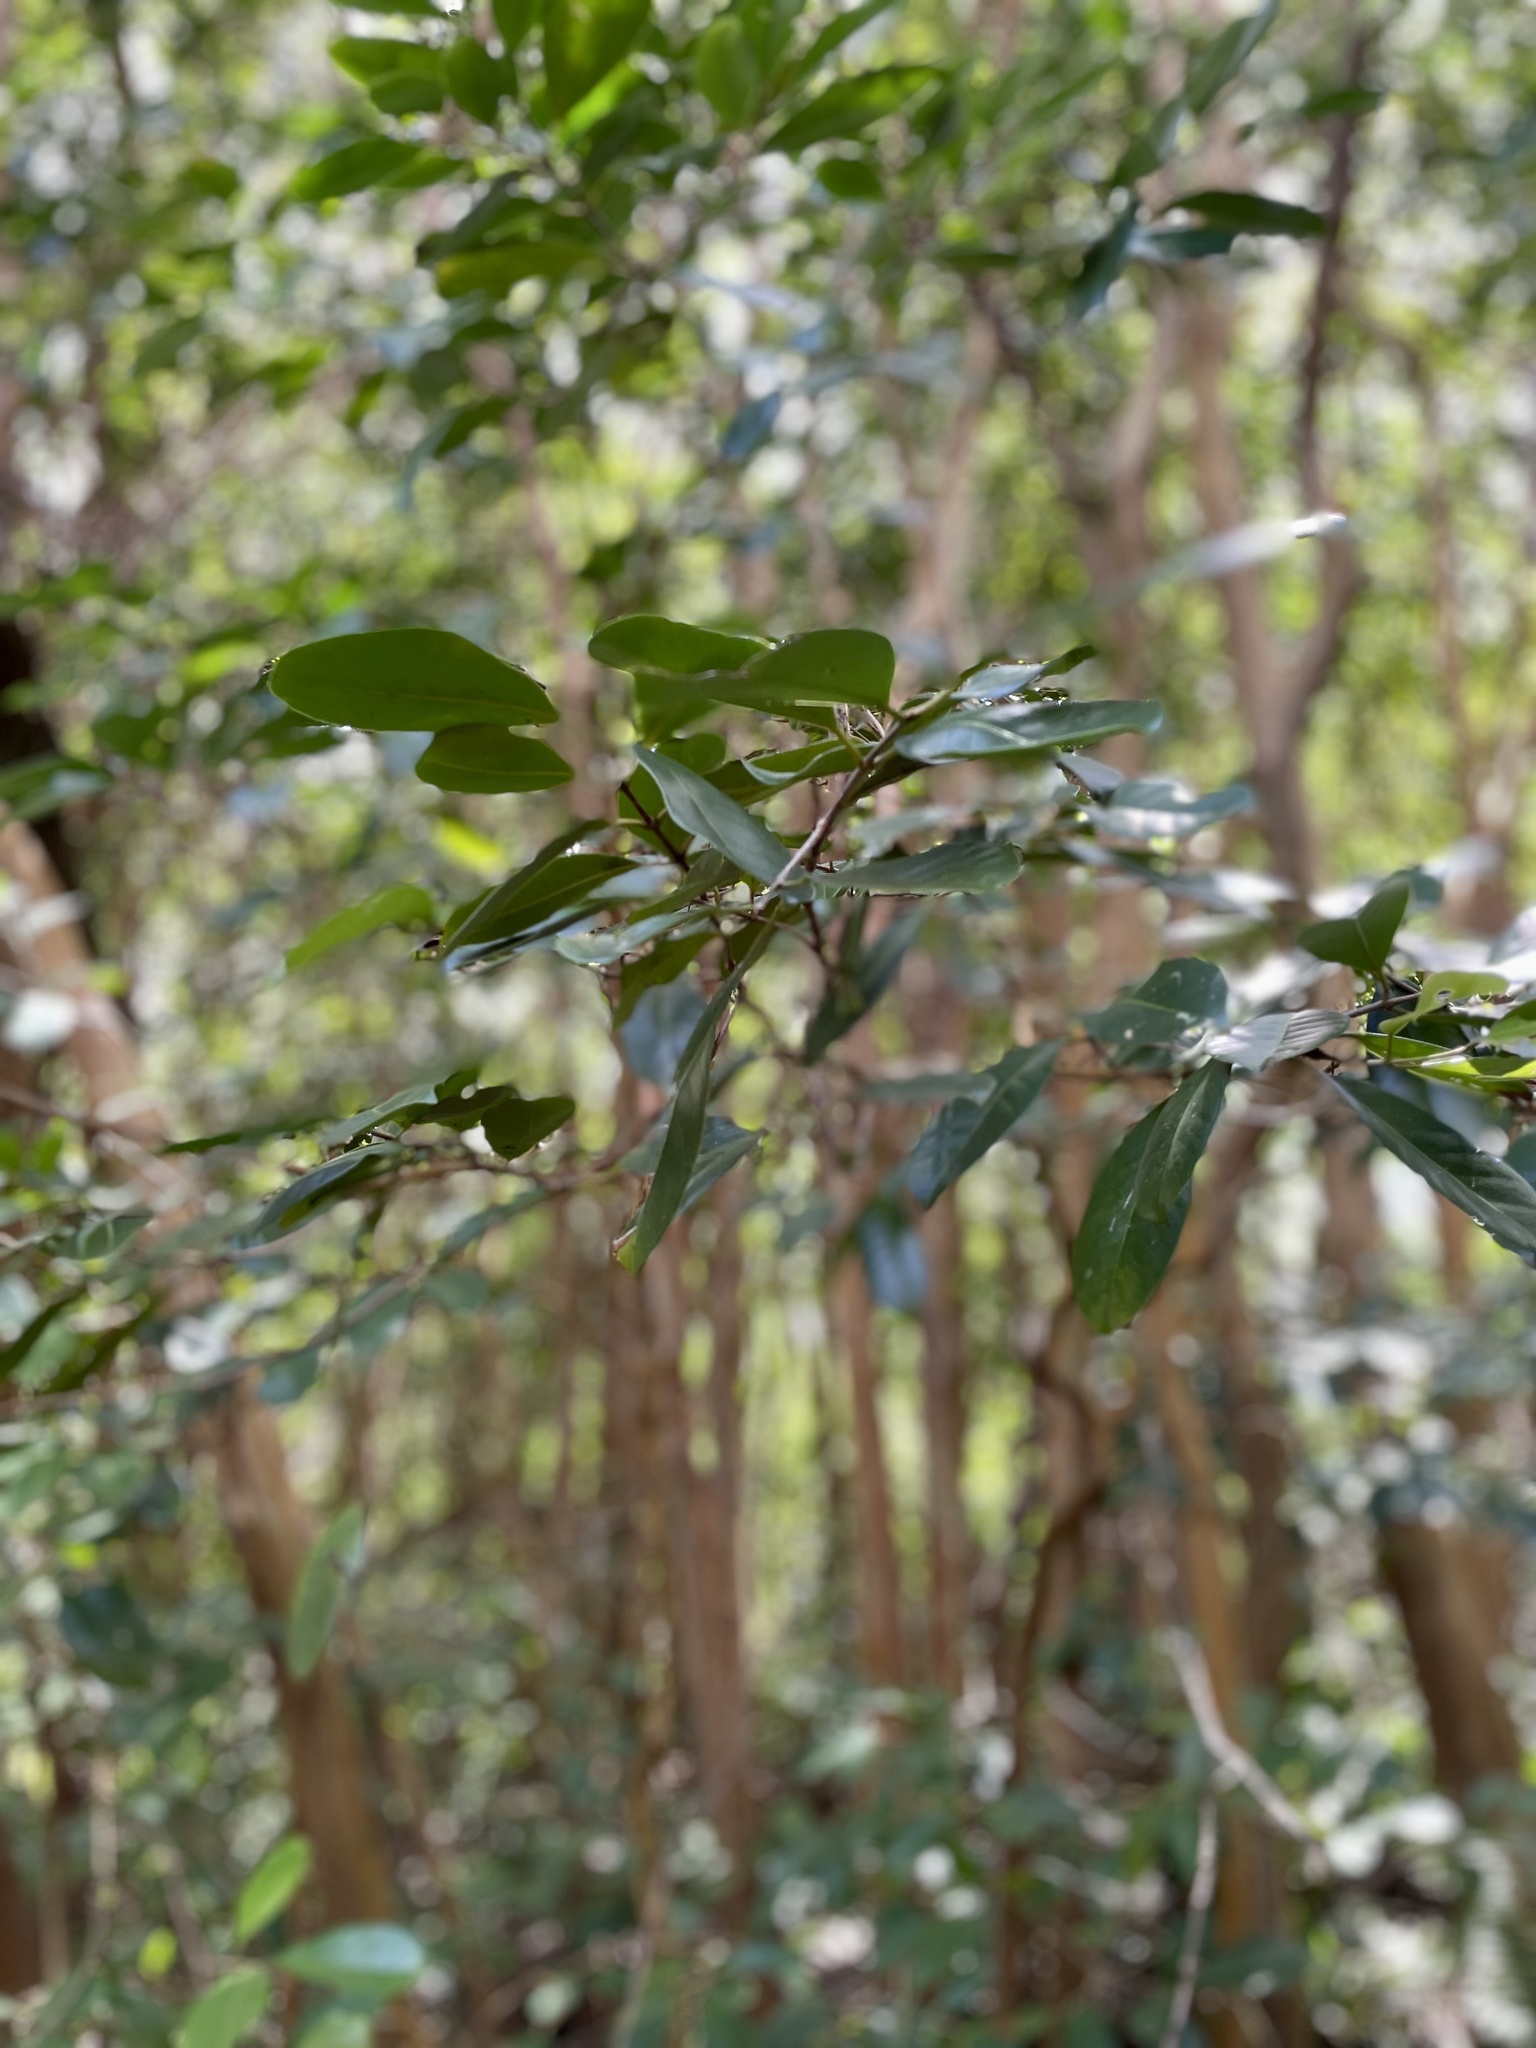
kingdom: Plantae
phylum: Tracheophyta
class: Magnoliopsida
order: Myrtales
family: Myrtaceae
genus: Psidium
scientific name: Psidium cattleianum
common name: Strawberry guava
